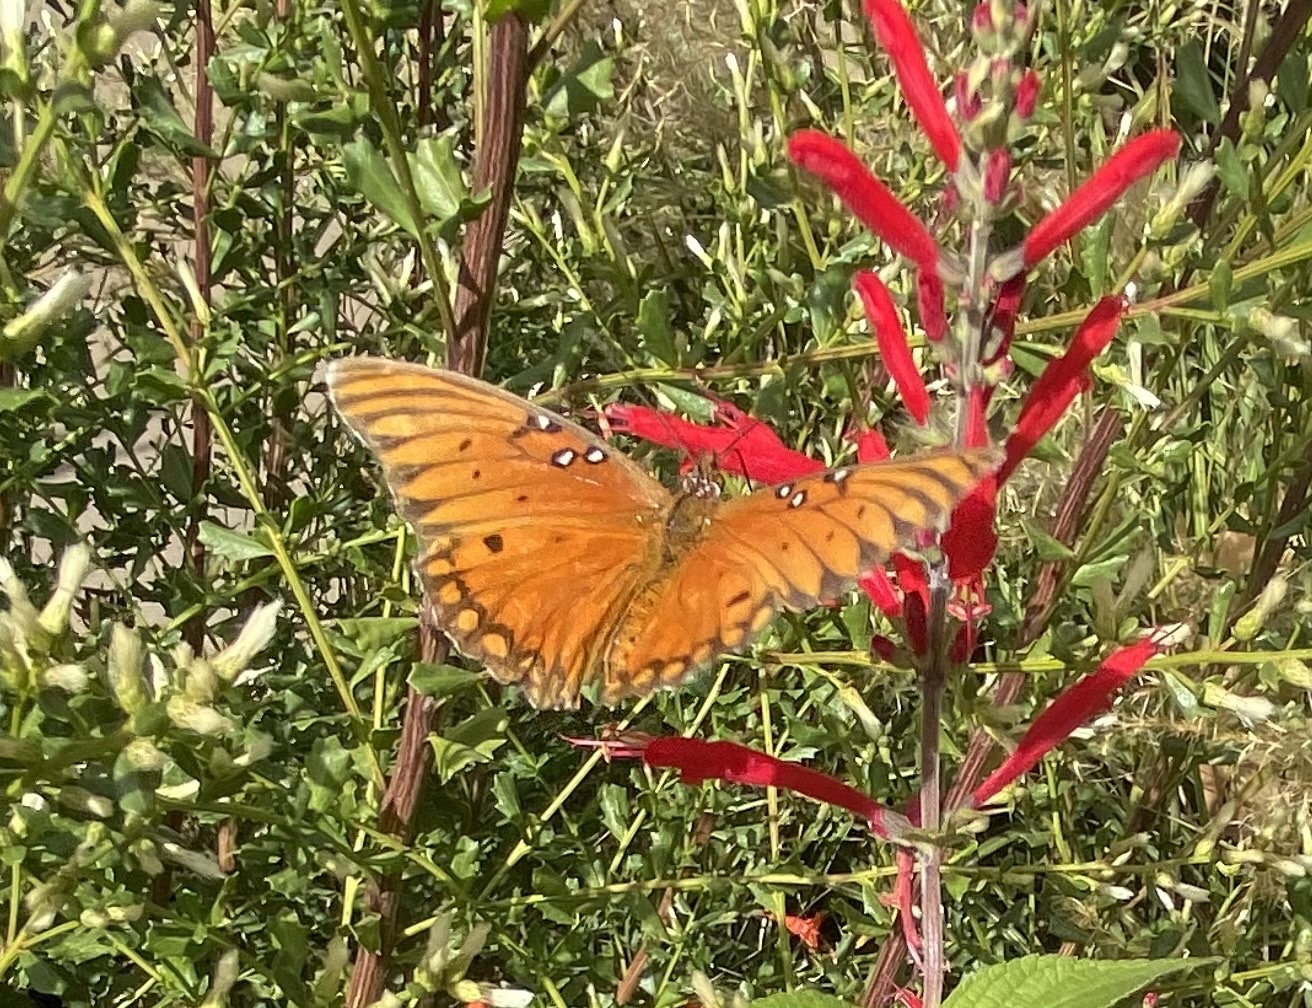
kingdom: Animalia
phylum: Arthropoda
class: Insecta
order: Lepidoptera
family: Nymphalidae
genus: Dione
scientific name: Dione vanillae
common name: Gulf fritillary
